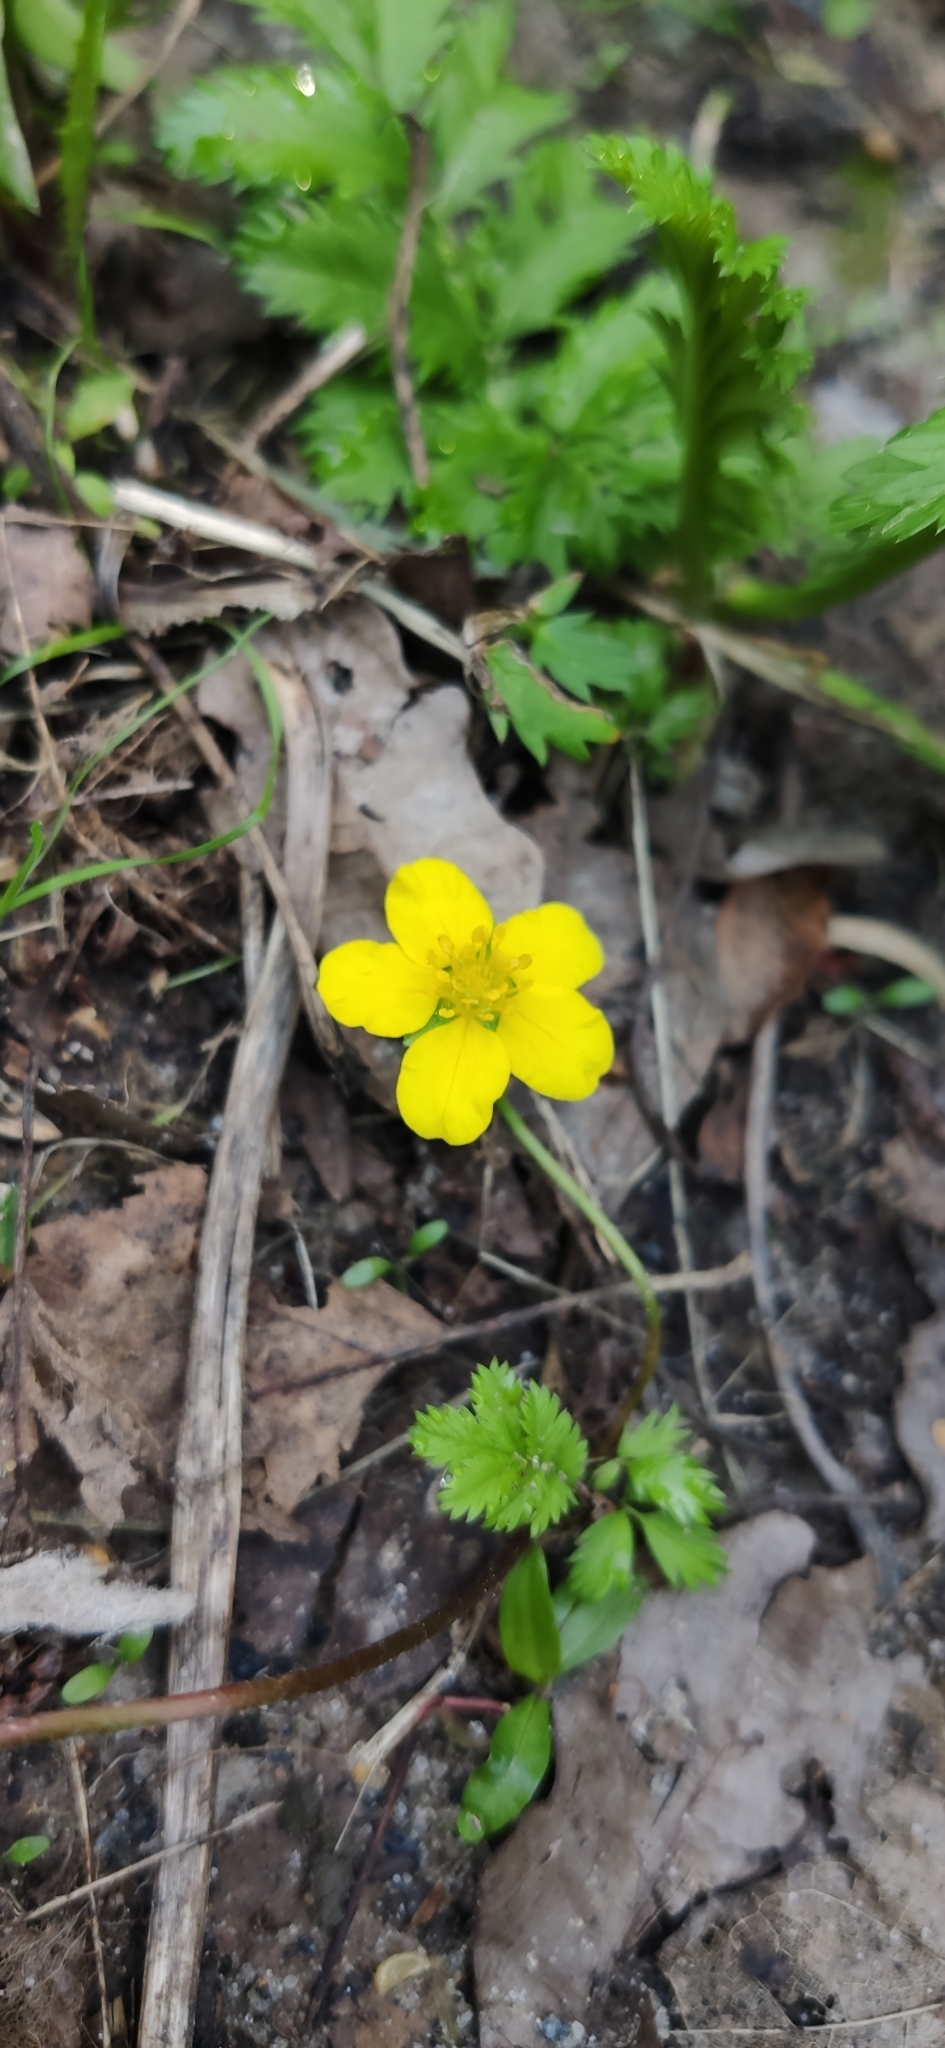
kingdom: Plantae
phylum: Tracheophyta
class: Magnoliopsida
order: Rosales
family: Rosaceae
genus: Argentina
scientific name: Argentina anserina
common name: Common silverweed
